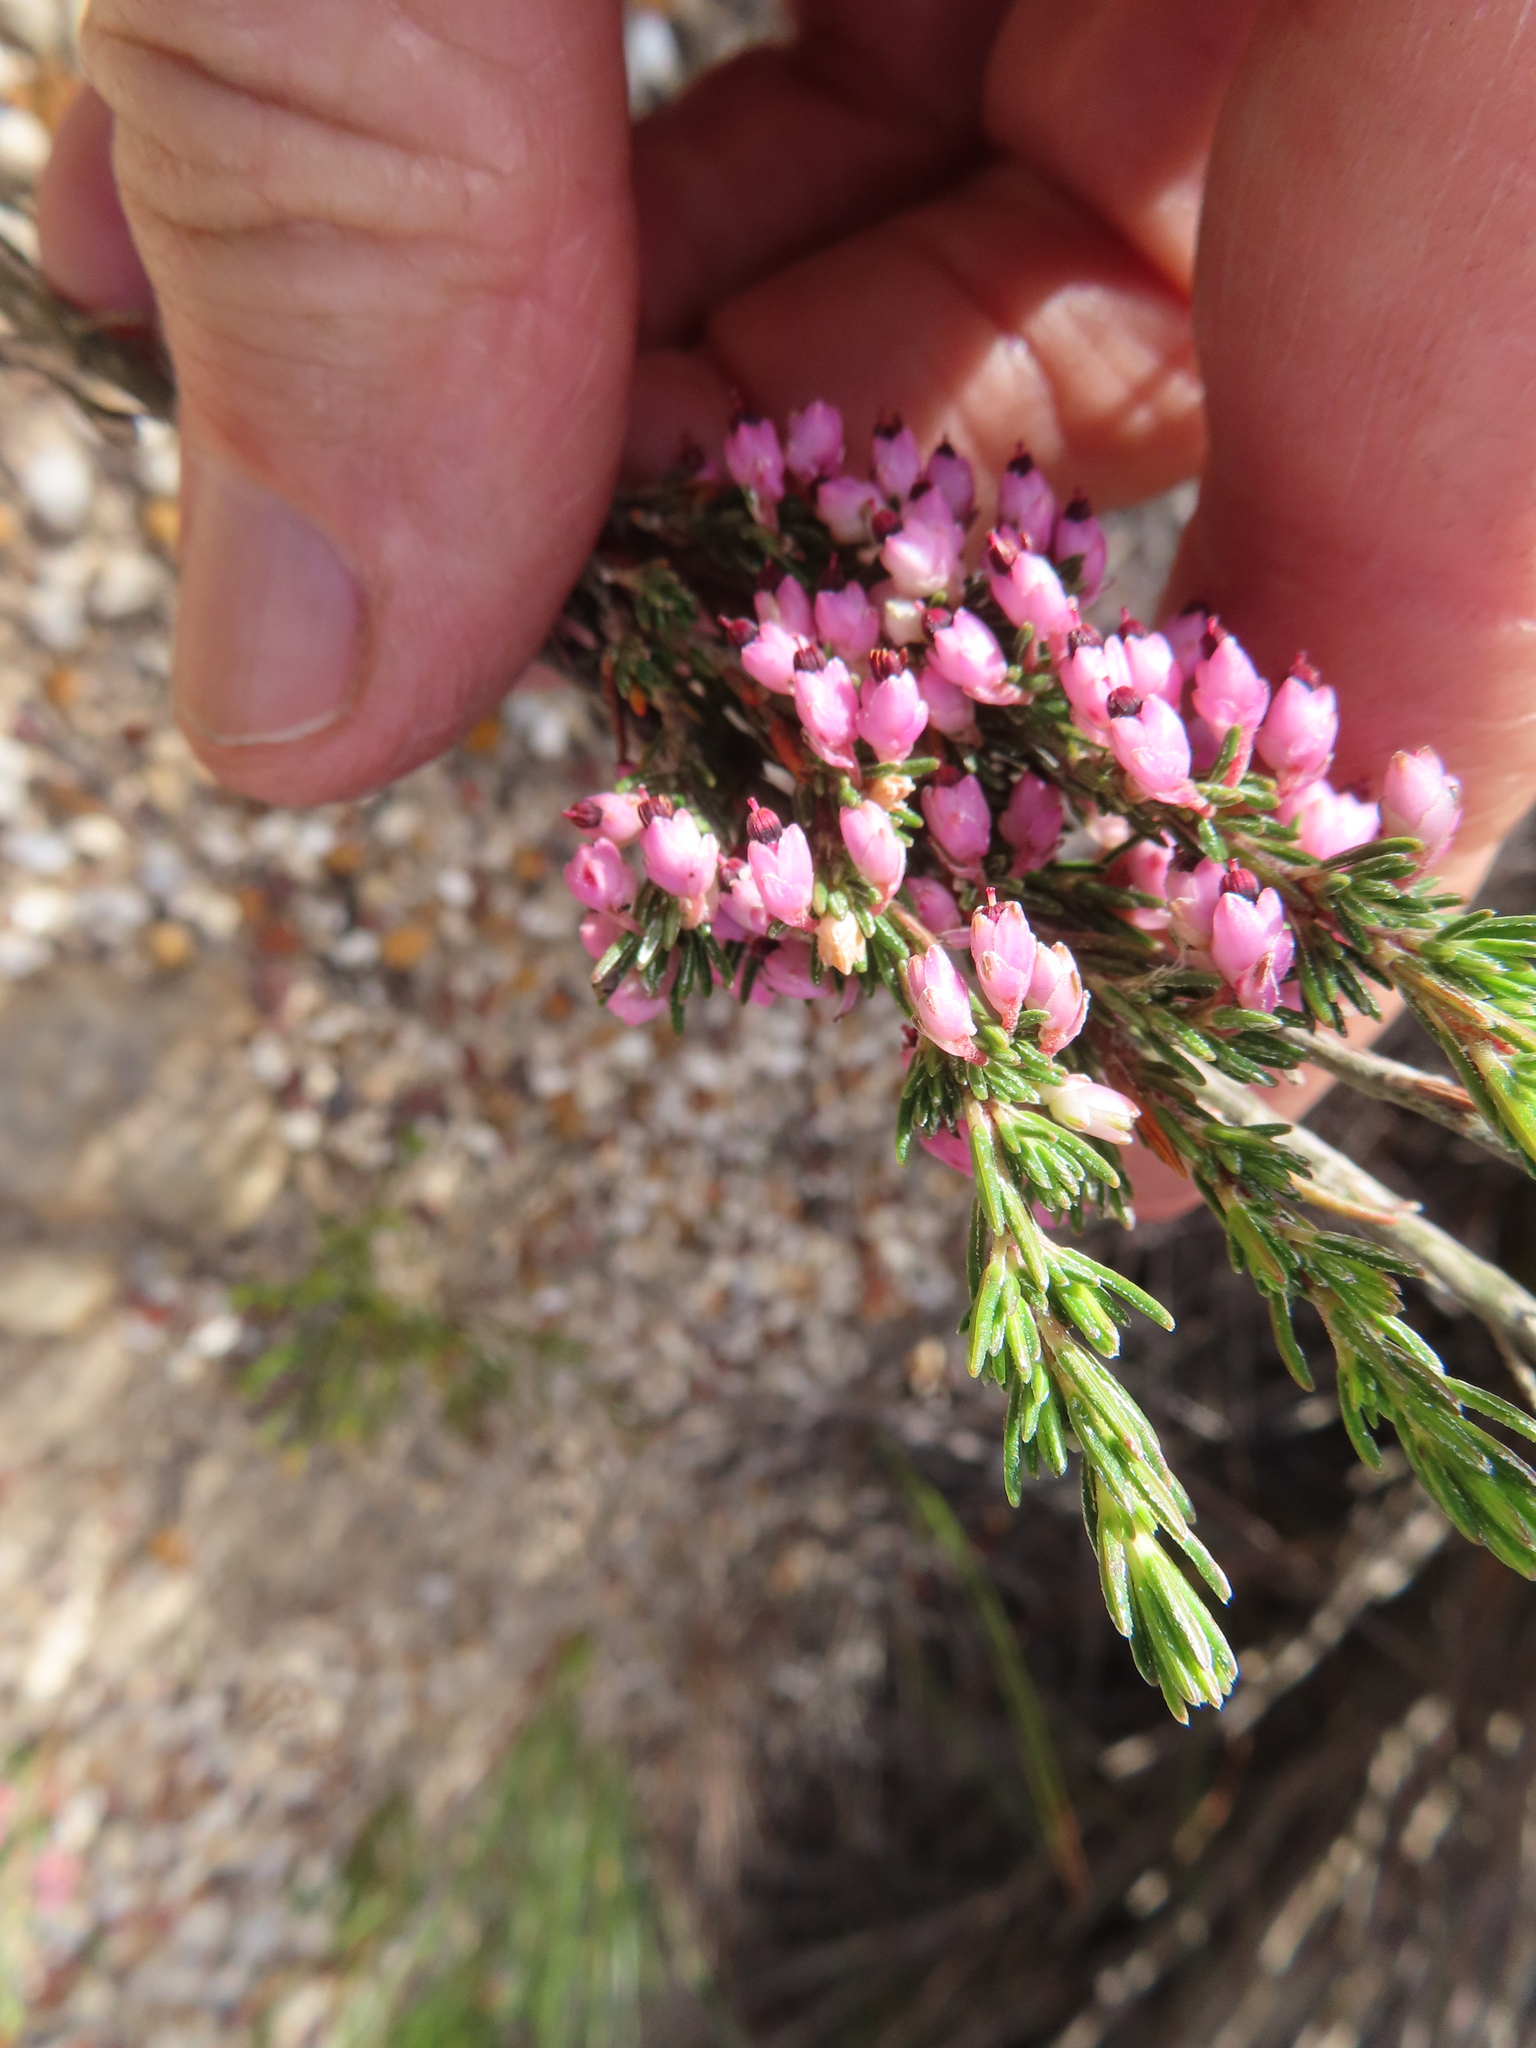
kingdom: Plantae
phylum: Tracheophyta
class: Magnoliopsida
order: Ericales
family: Ericaceae
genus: Erica
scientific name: Erica placentiflora
